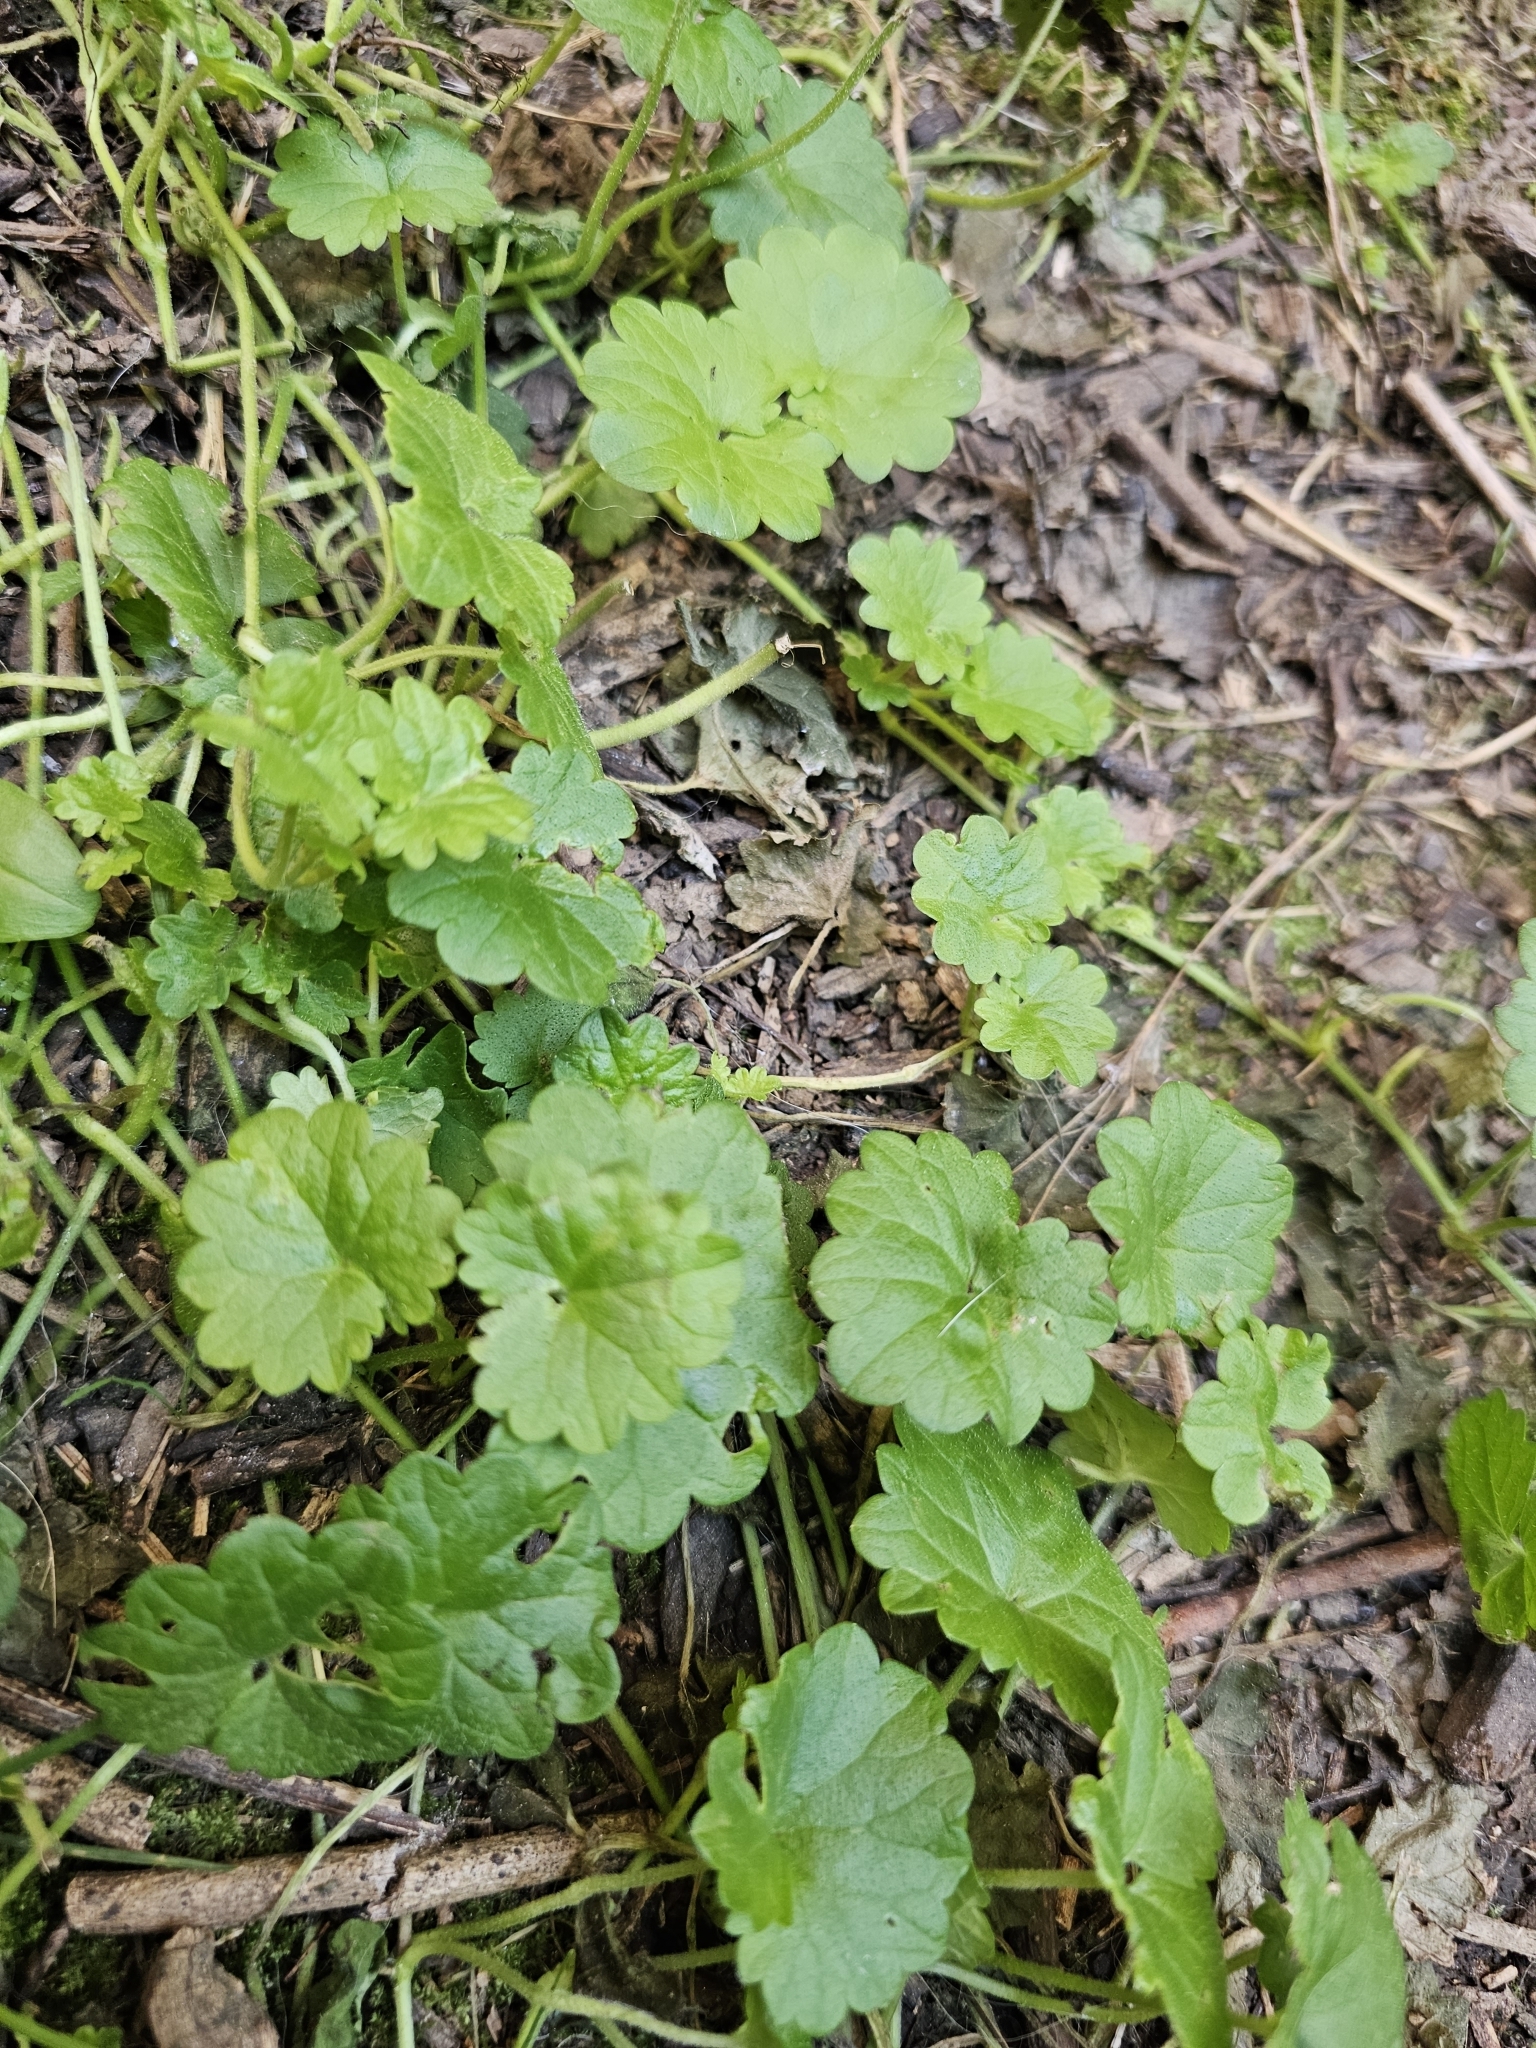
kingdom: Plantae
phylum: Tracheophyta
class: Magnoliopsida
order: Lamiales
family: Lamiaceae
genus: Glechoma
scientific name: Glechoma hederacea
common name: Ground ivy
